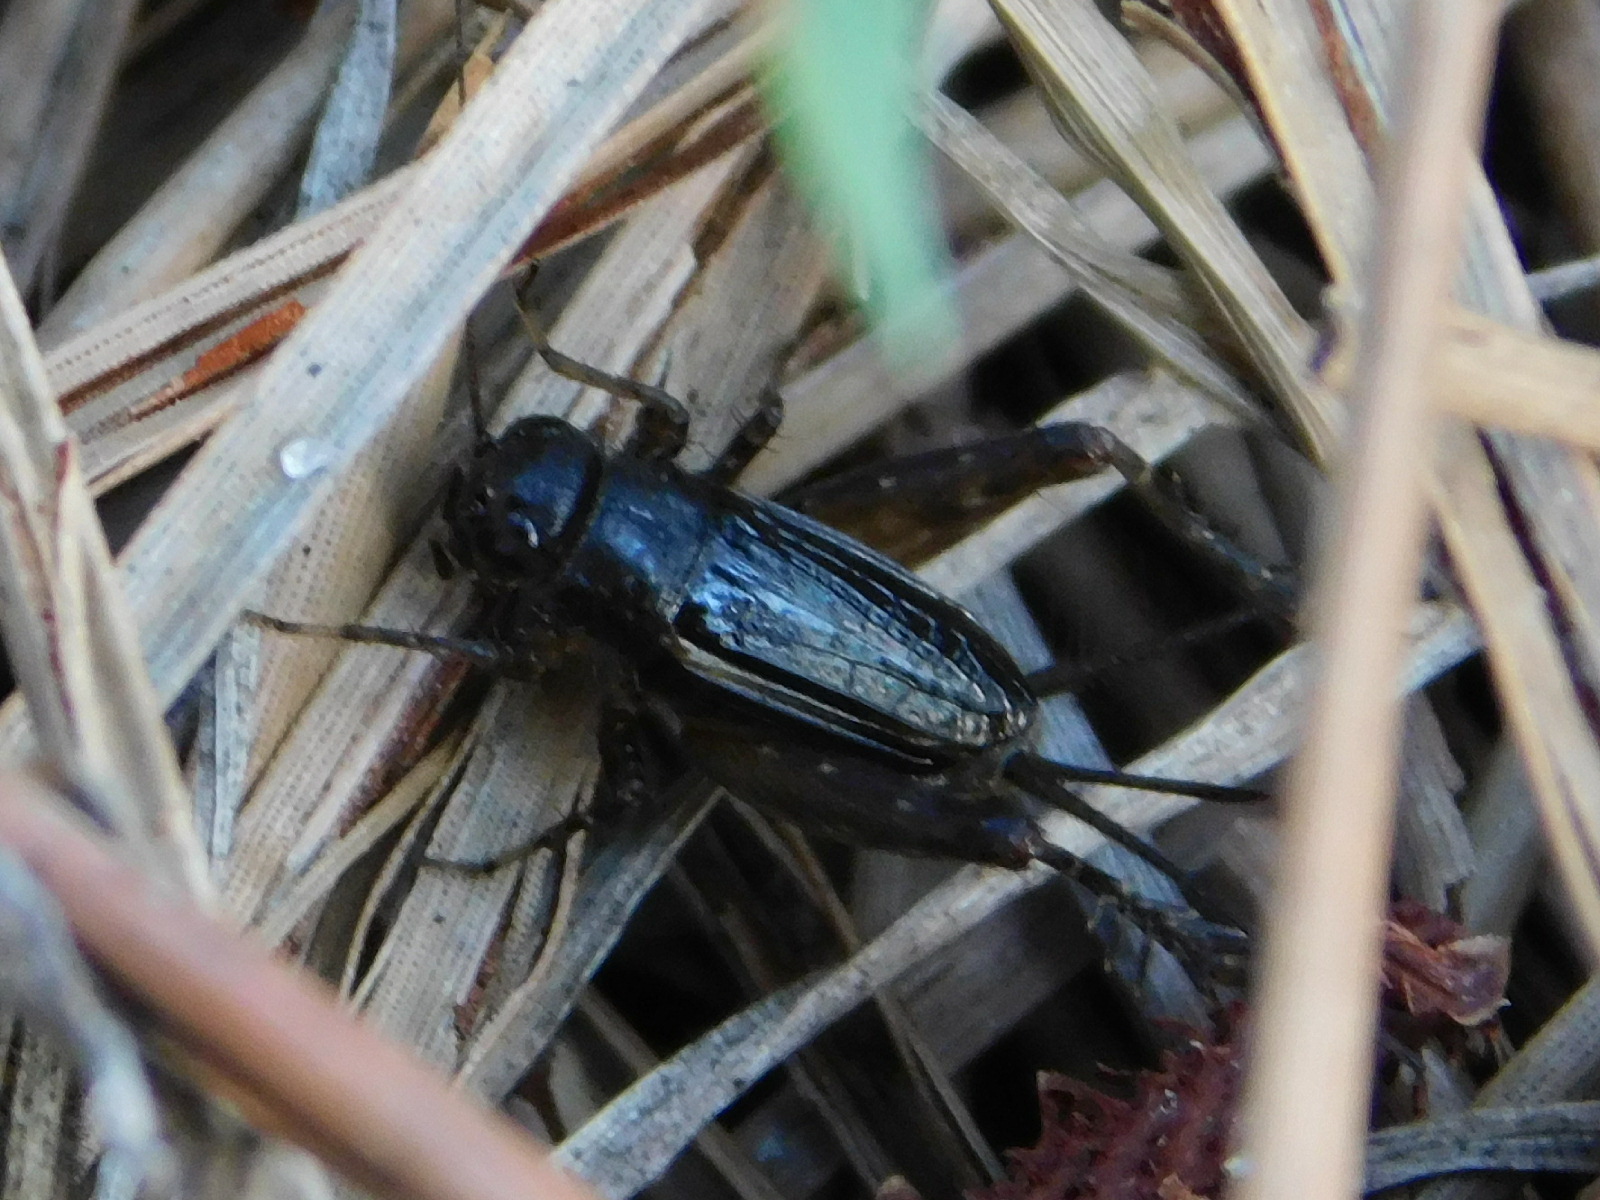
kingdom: Animalia
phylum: Arthropoda
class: Insecta
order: Orthoptera
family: Trigonidiidae
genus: Neonemobius
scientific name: Neonemobius cubensis
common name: Cuban ground cricket
